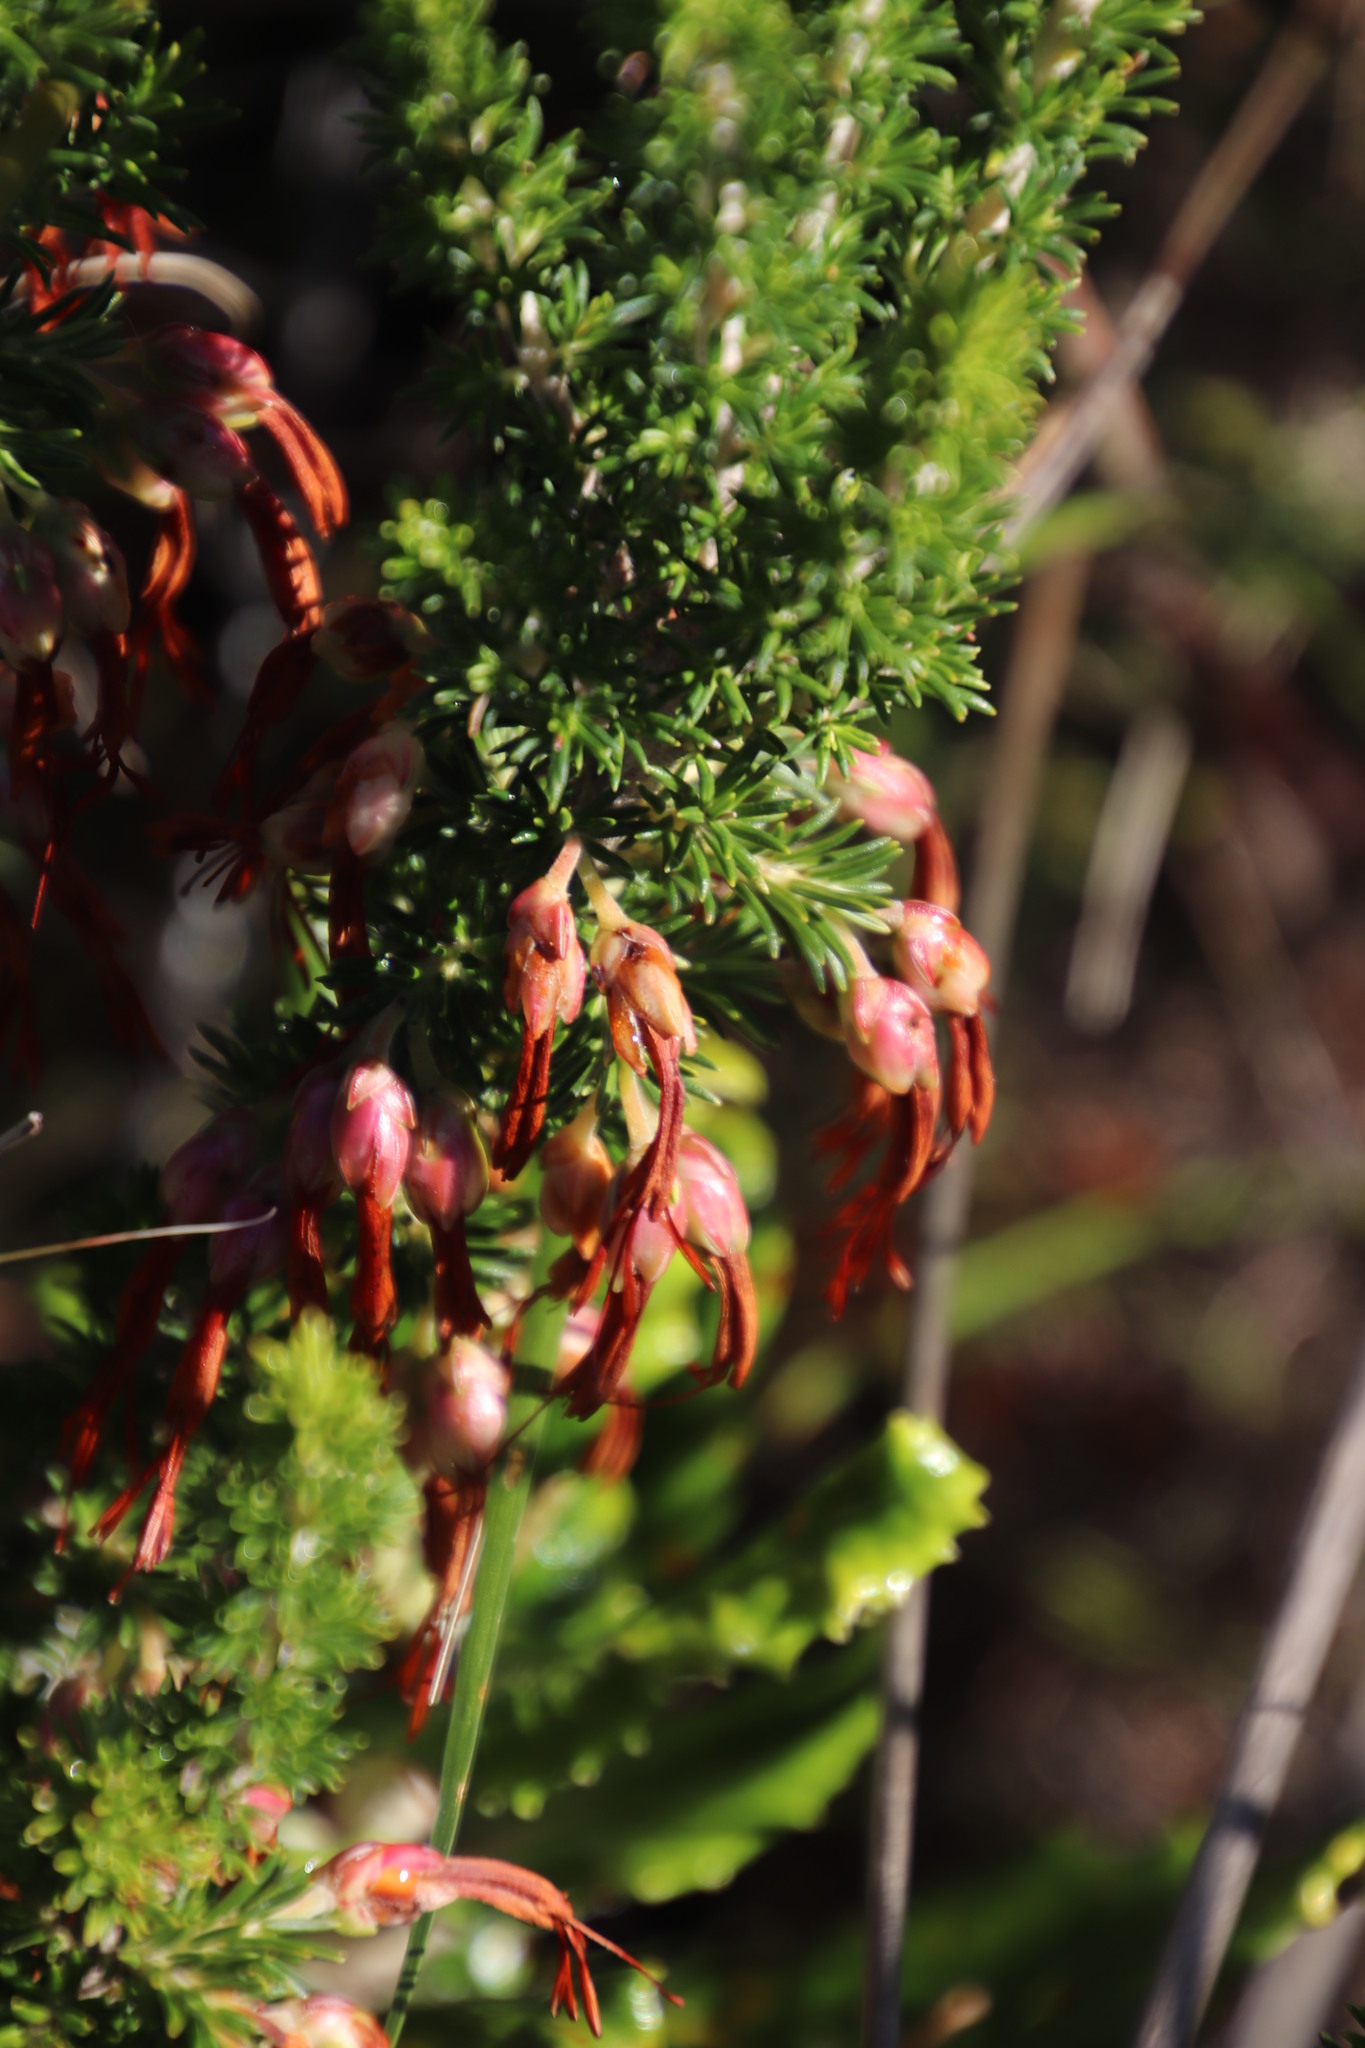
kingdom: Plantae
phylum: Tracheophyta
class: Magnoliopsida
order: Ericales
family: Ericaceae
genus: Erica
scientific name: Erica coccinea
